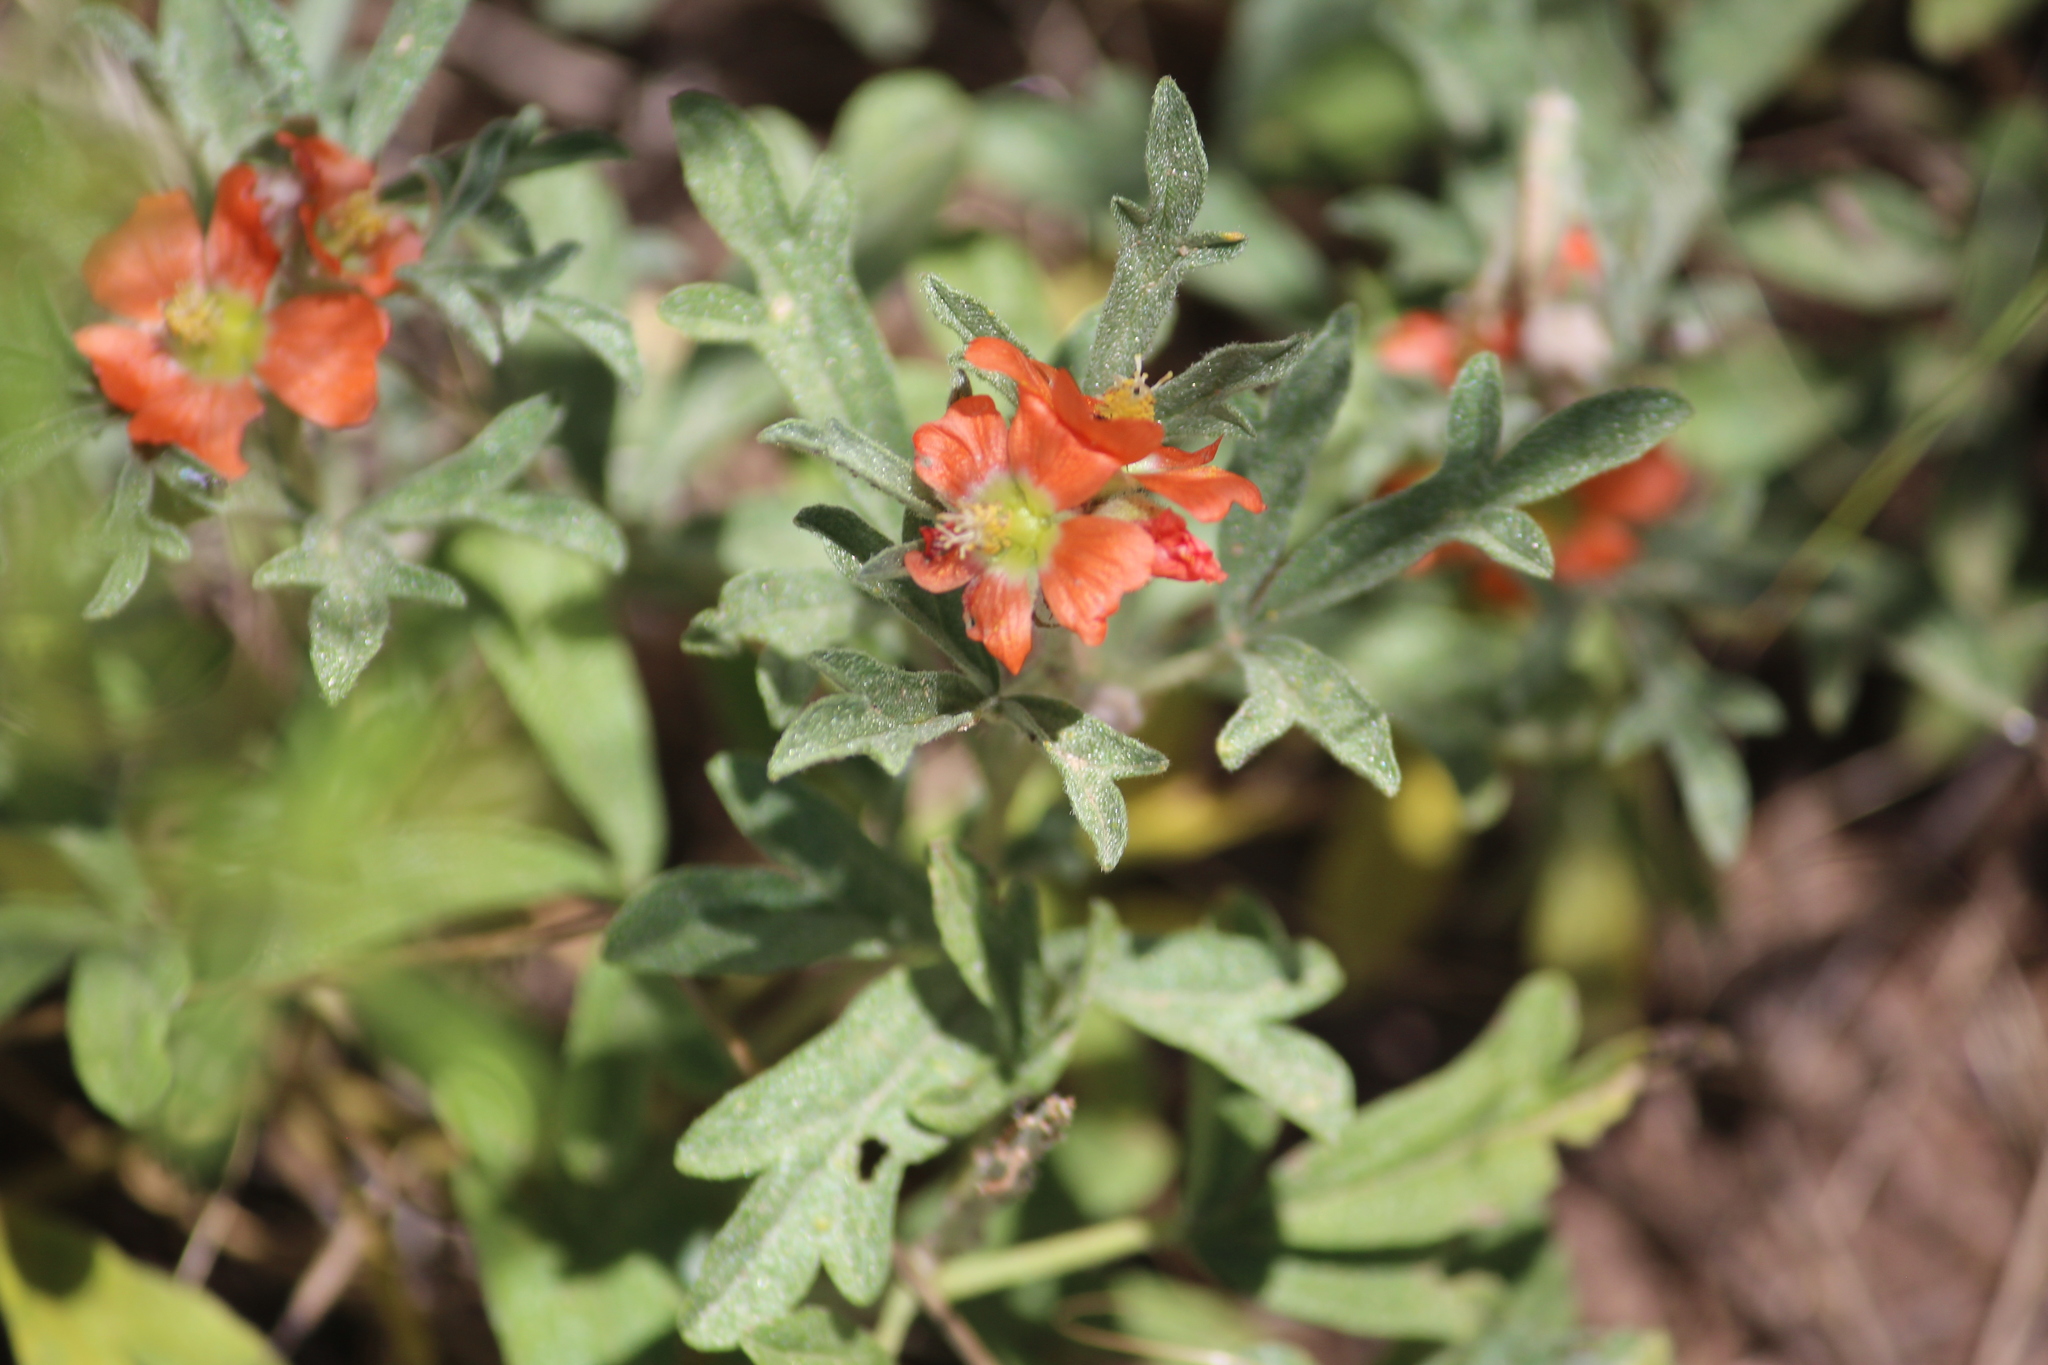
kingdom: Plantae
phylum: Tracheophyta
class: Magnoliopsida
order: Malvales
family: Malvaceae
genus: Sphaeralcea
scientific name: Sphaeralcea coccinea
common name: Moss-rose
